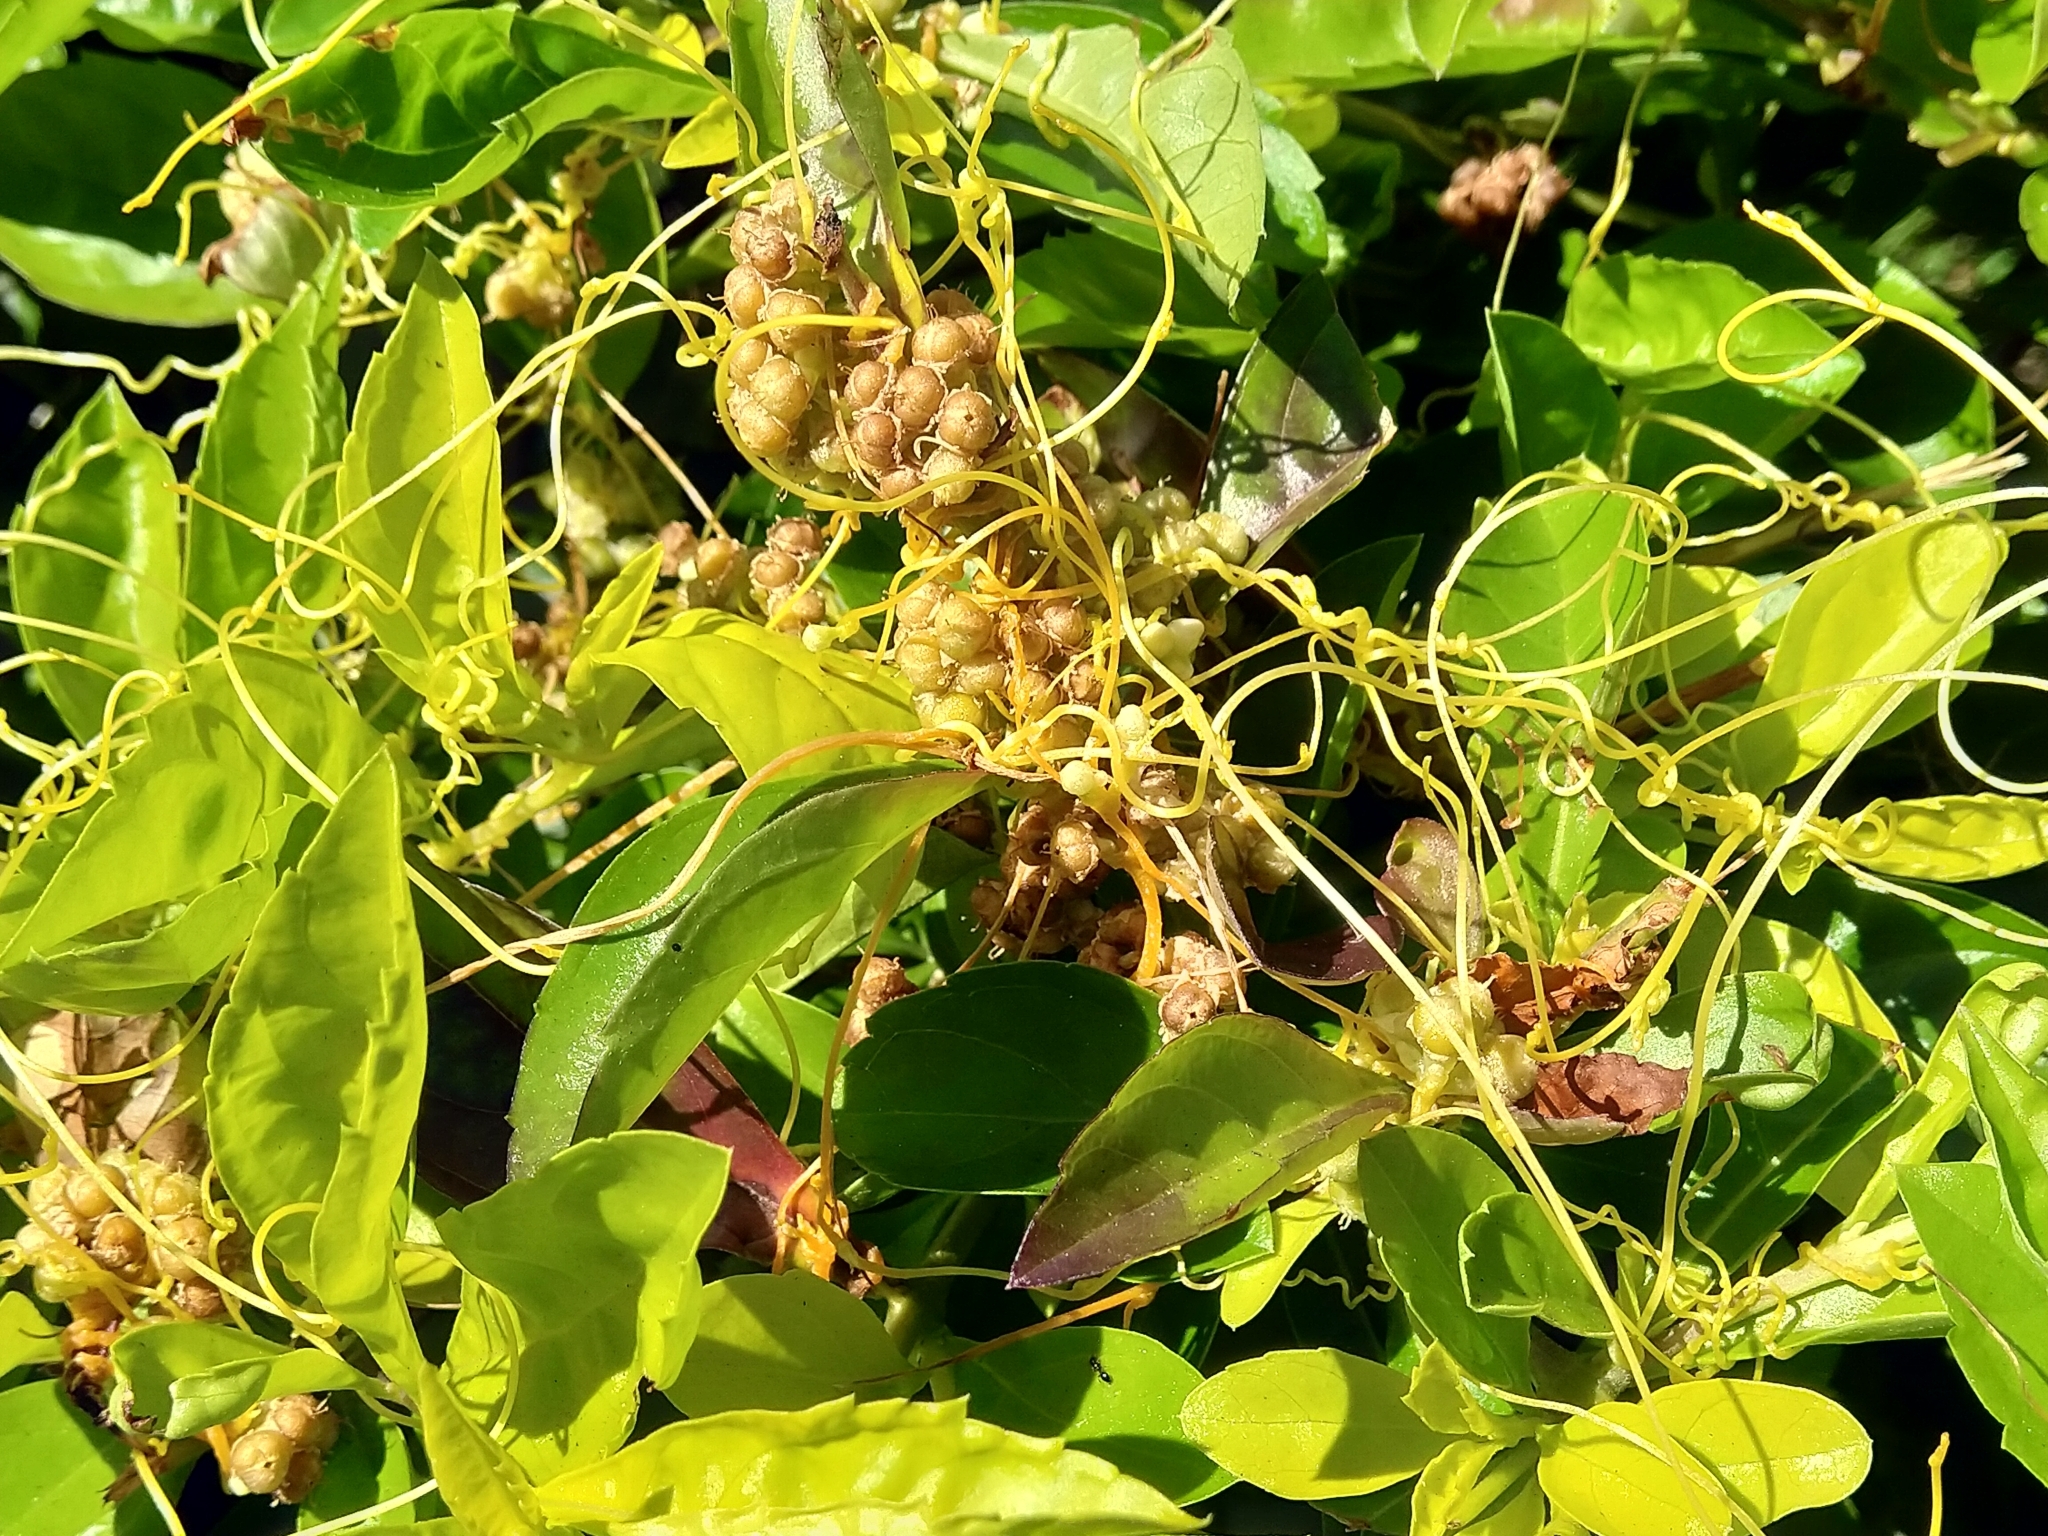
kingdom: Plantae
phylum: Tracheophyta
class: Magnoliopsida
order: Solanales
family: Convolvulaceae
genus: Cuscuta
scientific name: Cuscuta campestris
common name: Yellow dodder
